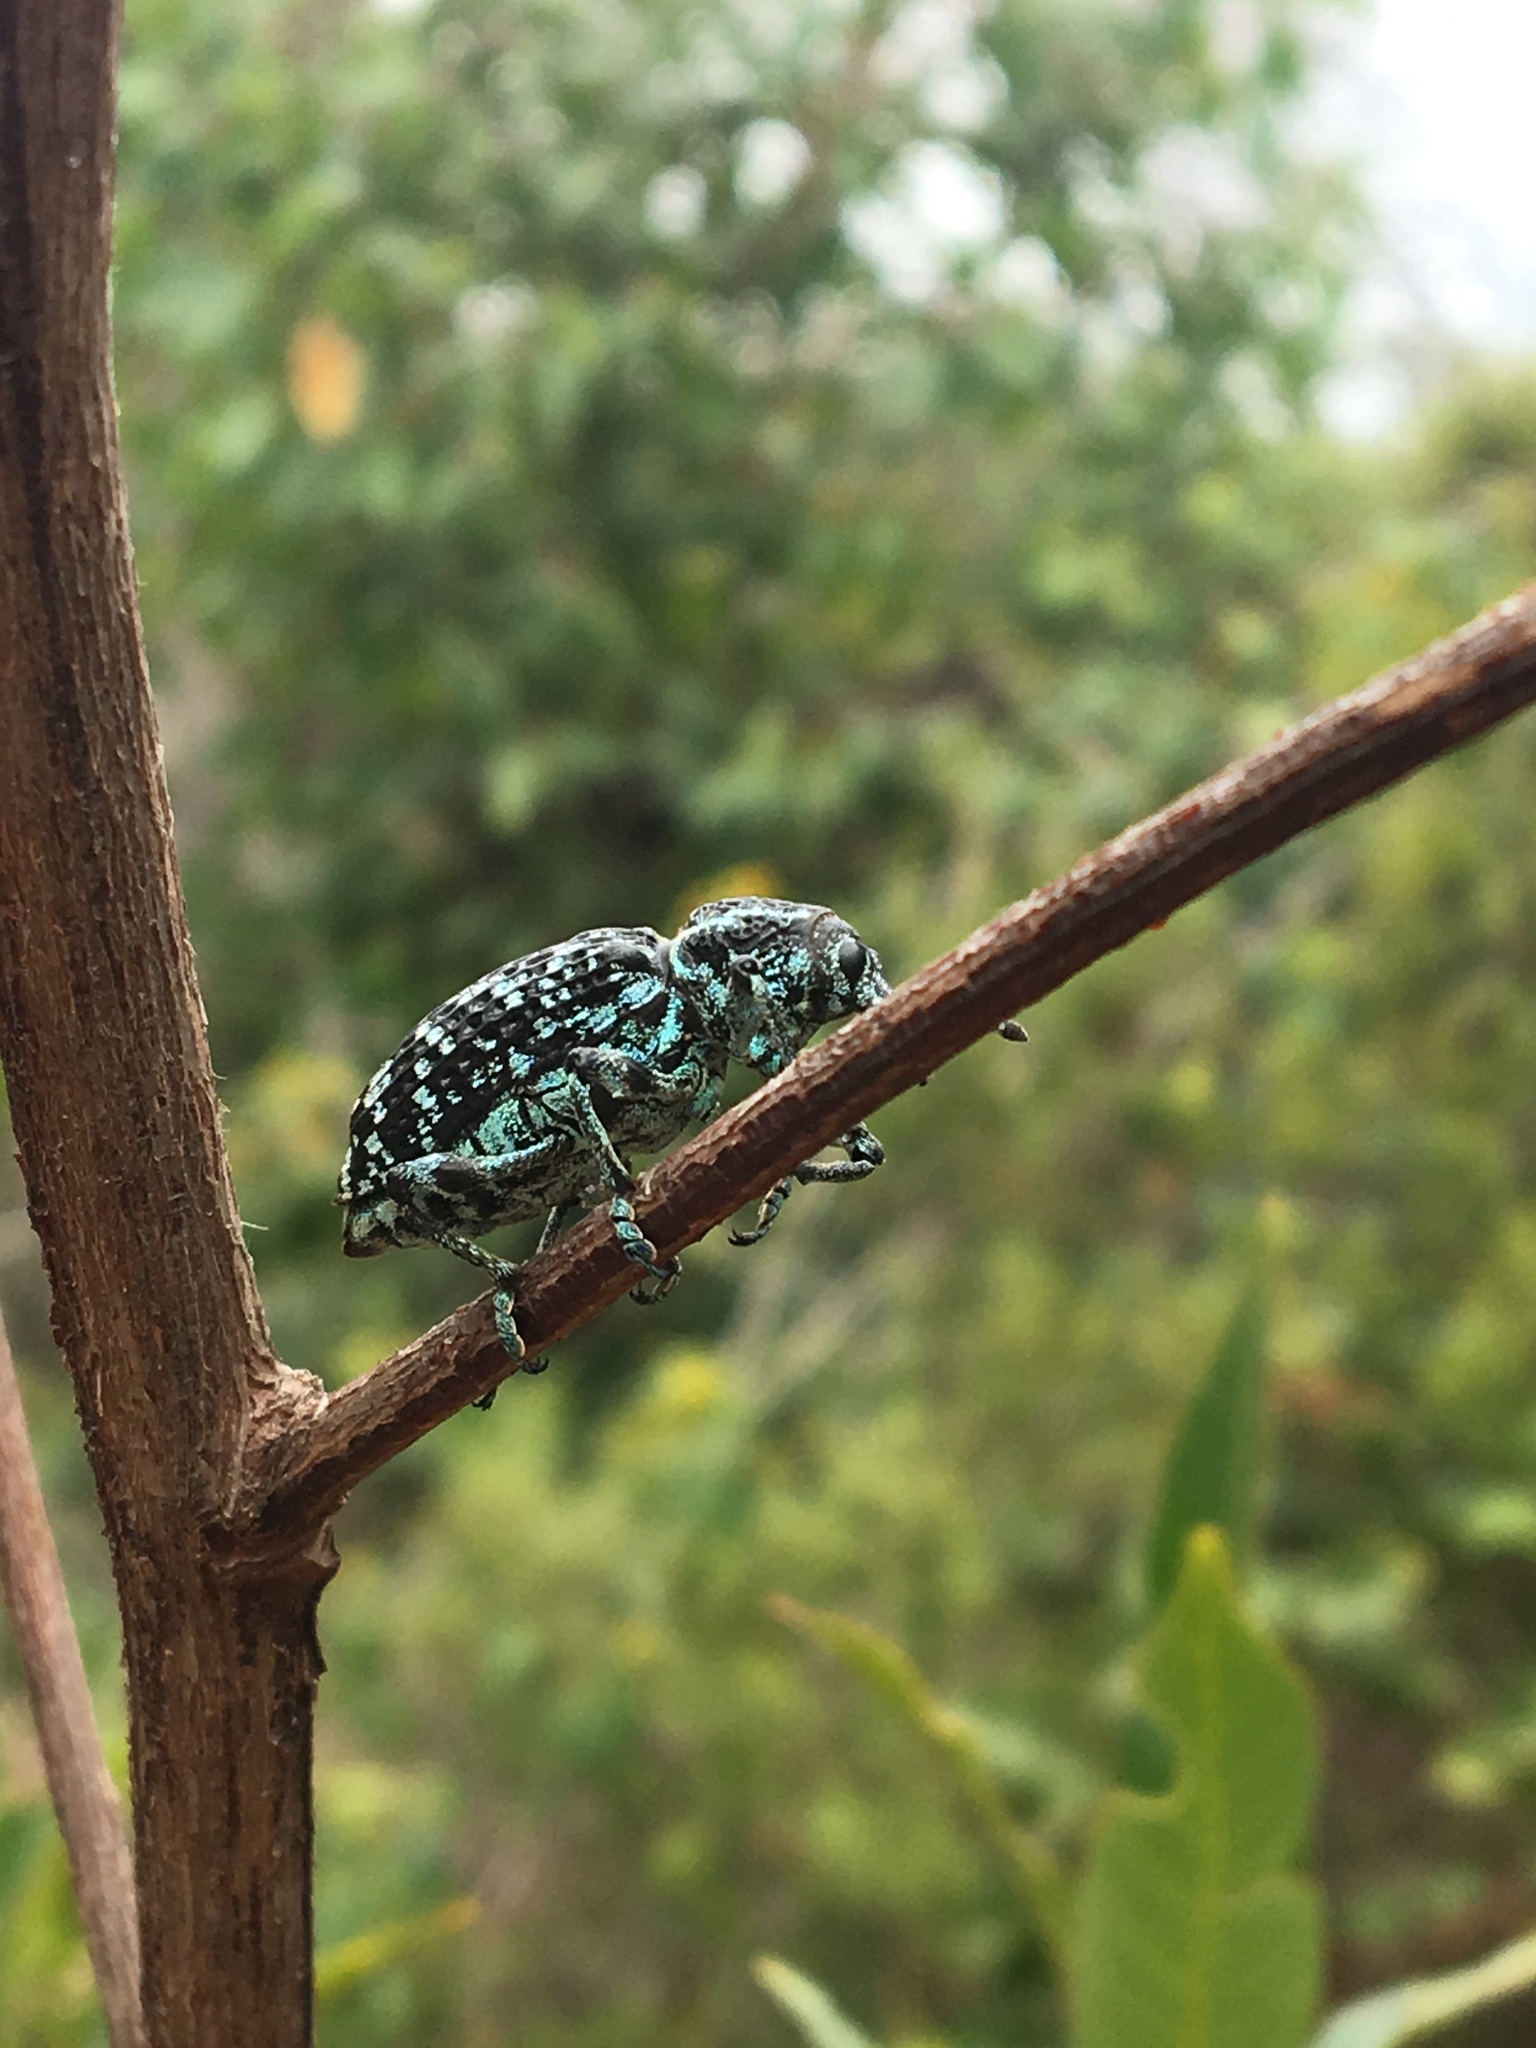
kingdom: Animalia
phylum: Arthropoda
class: Insecta
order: Coleoptera
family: Curculionidae
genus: Chrysolopus
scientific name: Chrysolopus spectabilis
